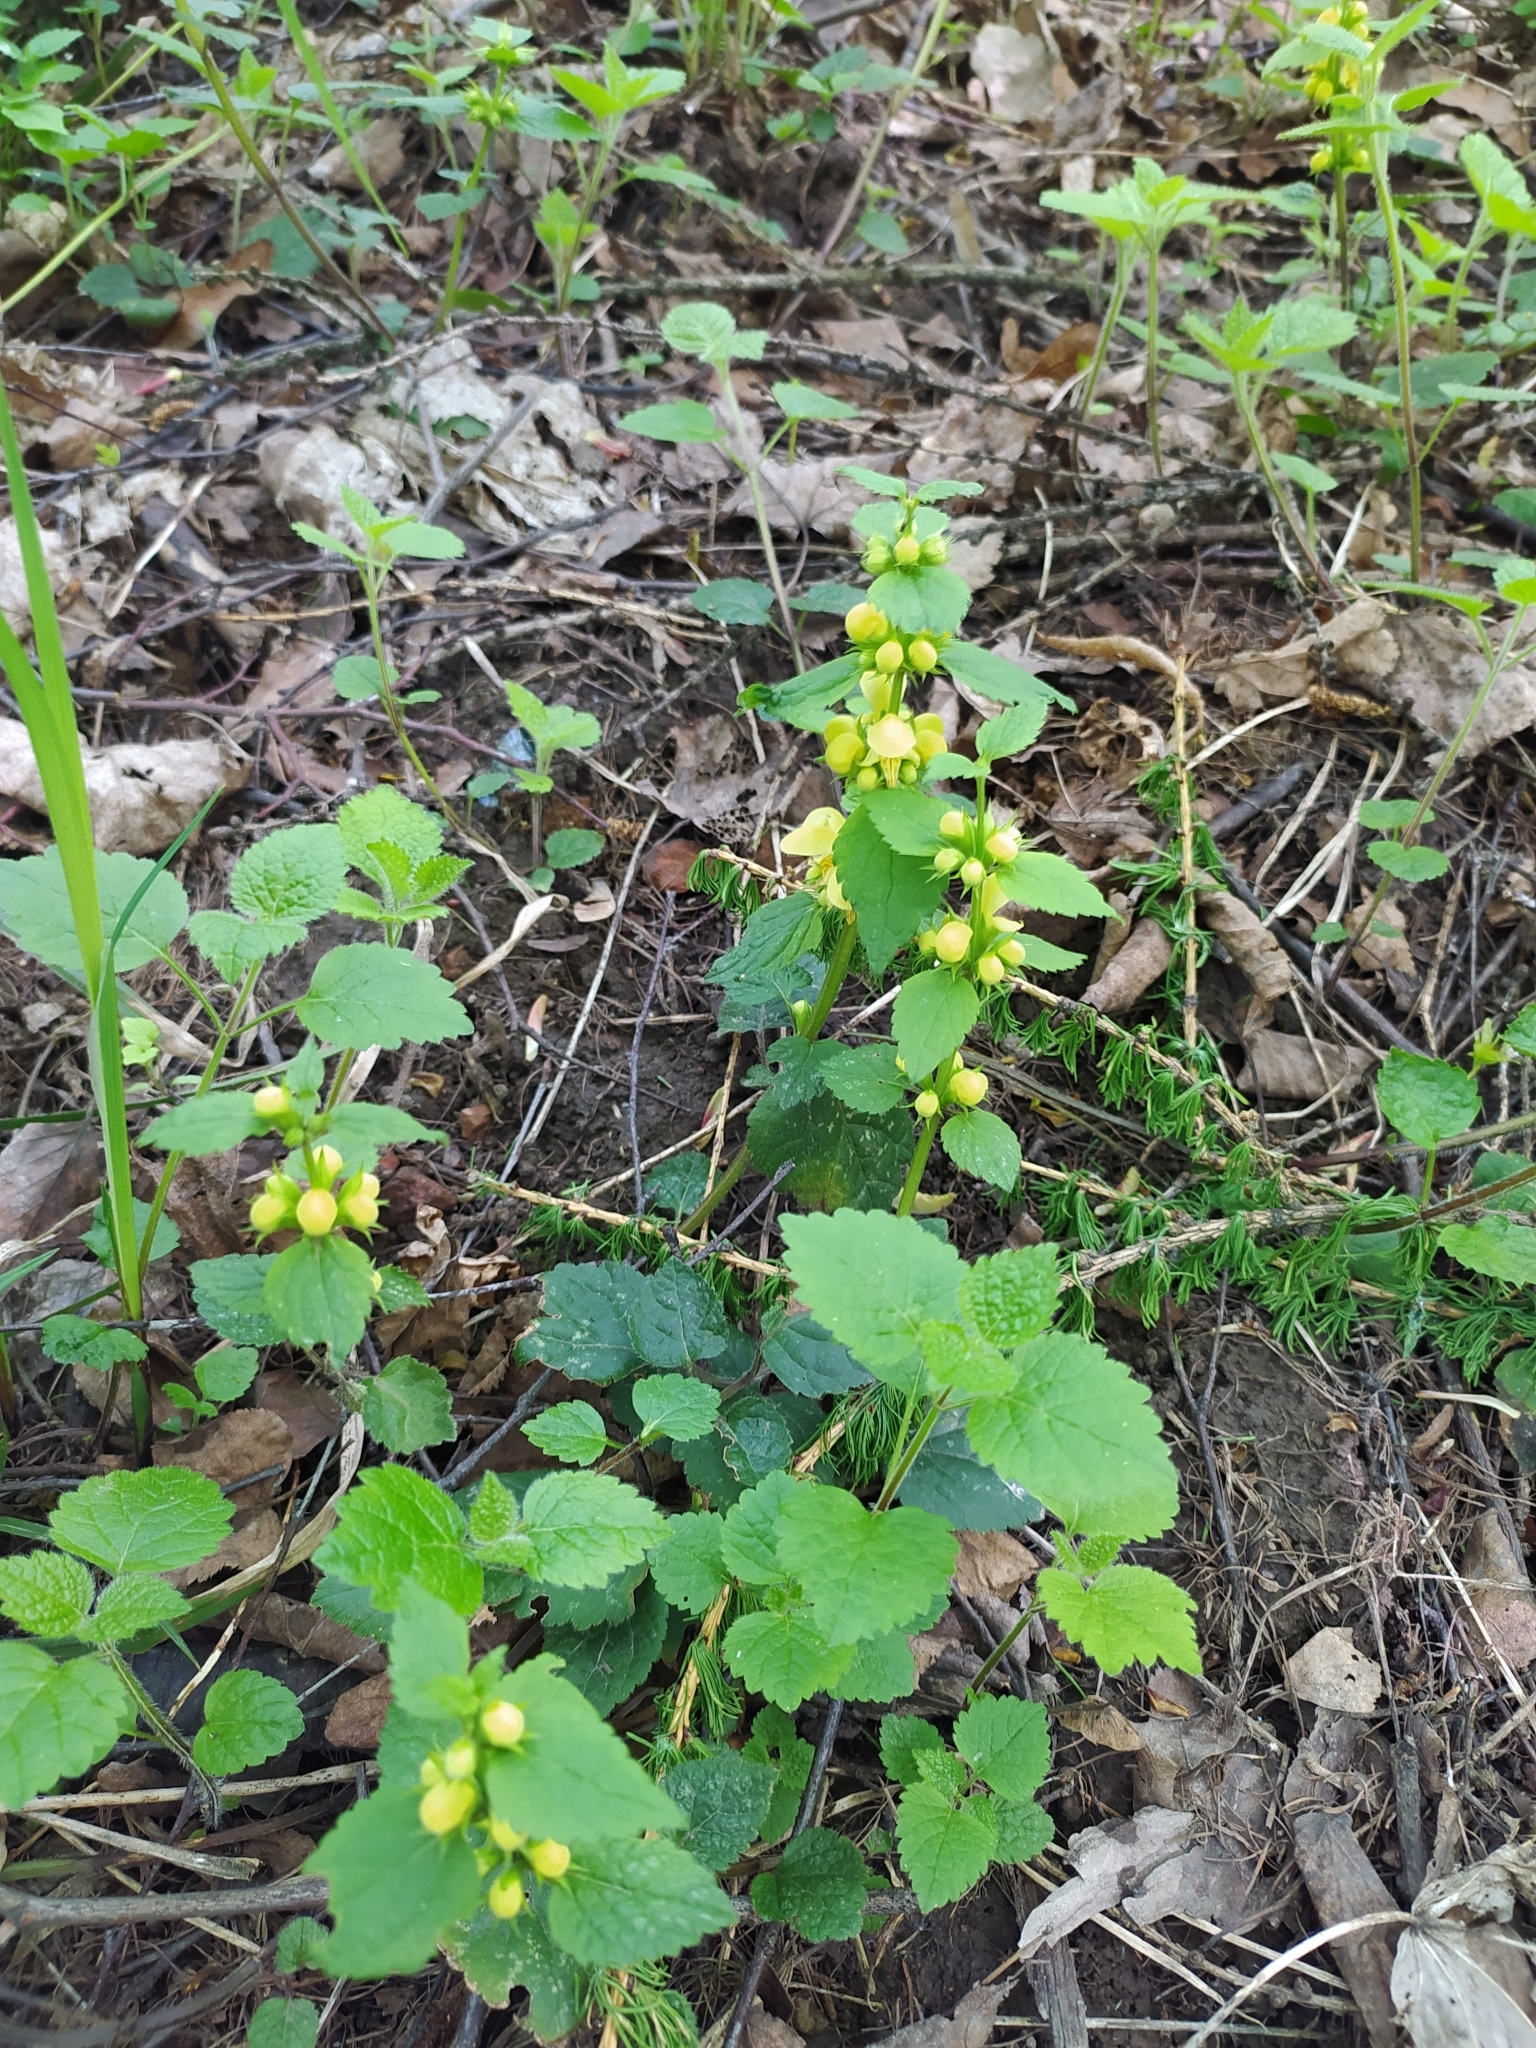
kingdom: Plantae
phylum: Tracheophyta
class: Magnoliopsida
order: Lamiales
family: Lamiaceae
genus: Lamium
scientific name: Lamium galeobdolon
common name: Yellow archangel
